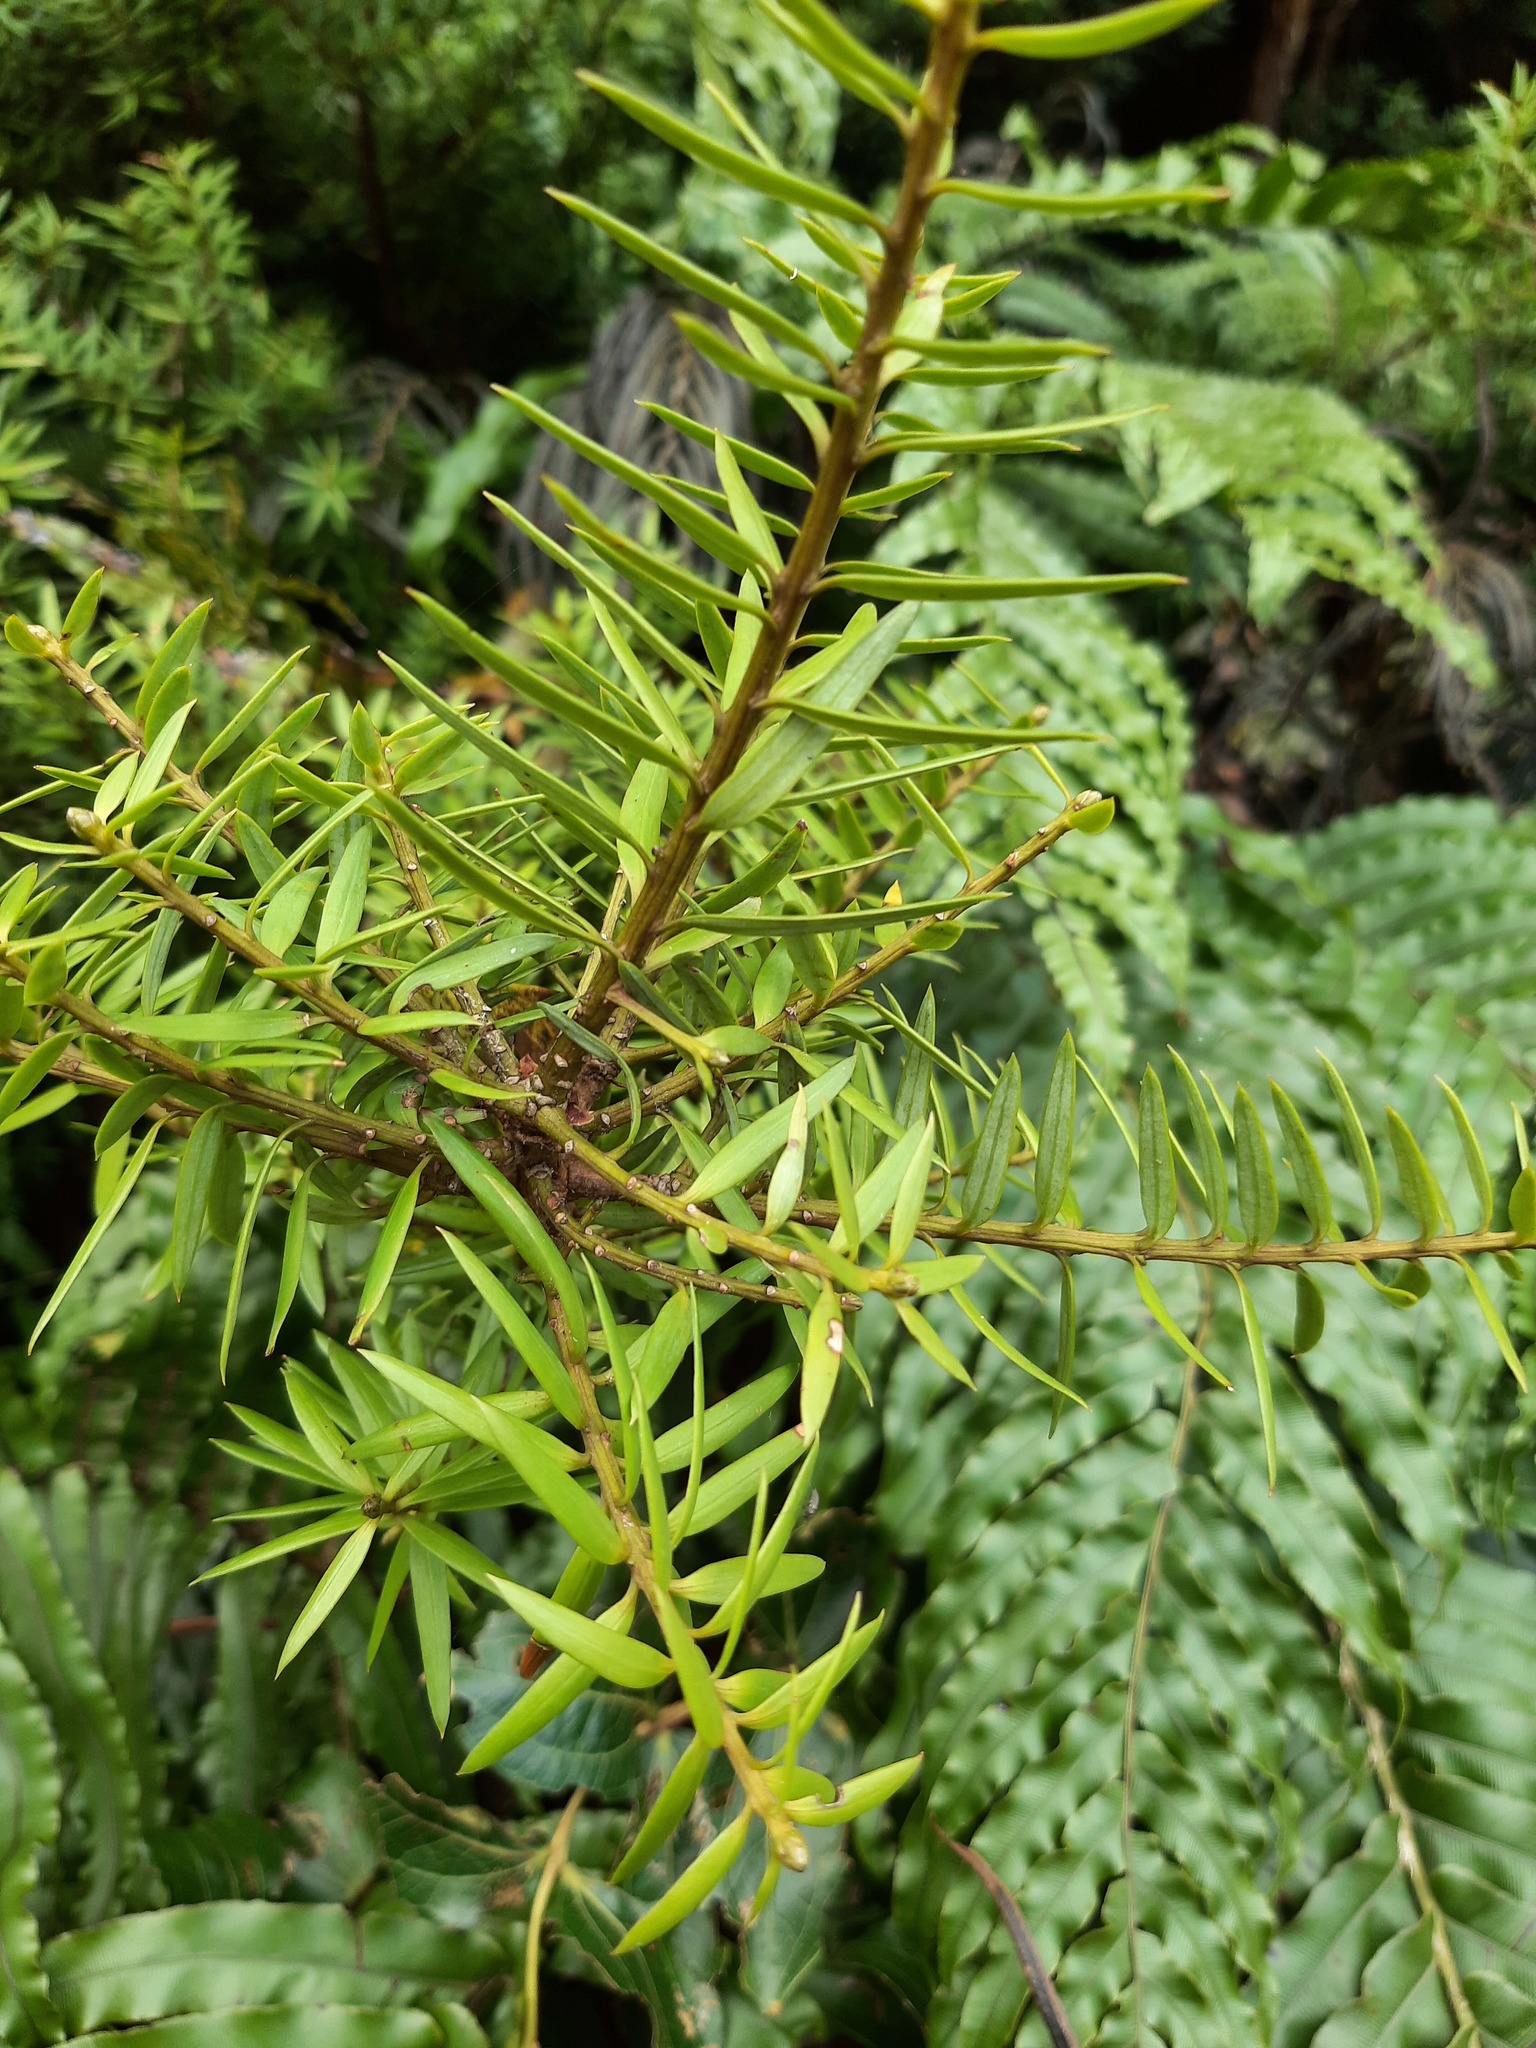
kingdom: Plantae
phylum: Tracheophyta
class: Pinopsida
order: Pinales
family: Podocarpaceae
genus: Podocarpus
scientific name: Podocarpus laetus
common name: Hall's totara
